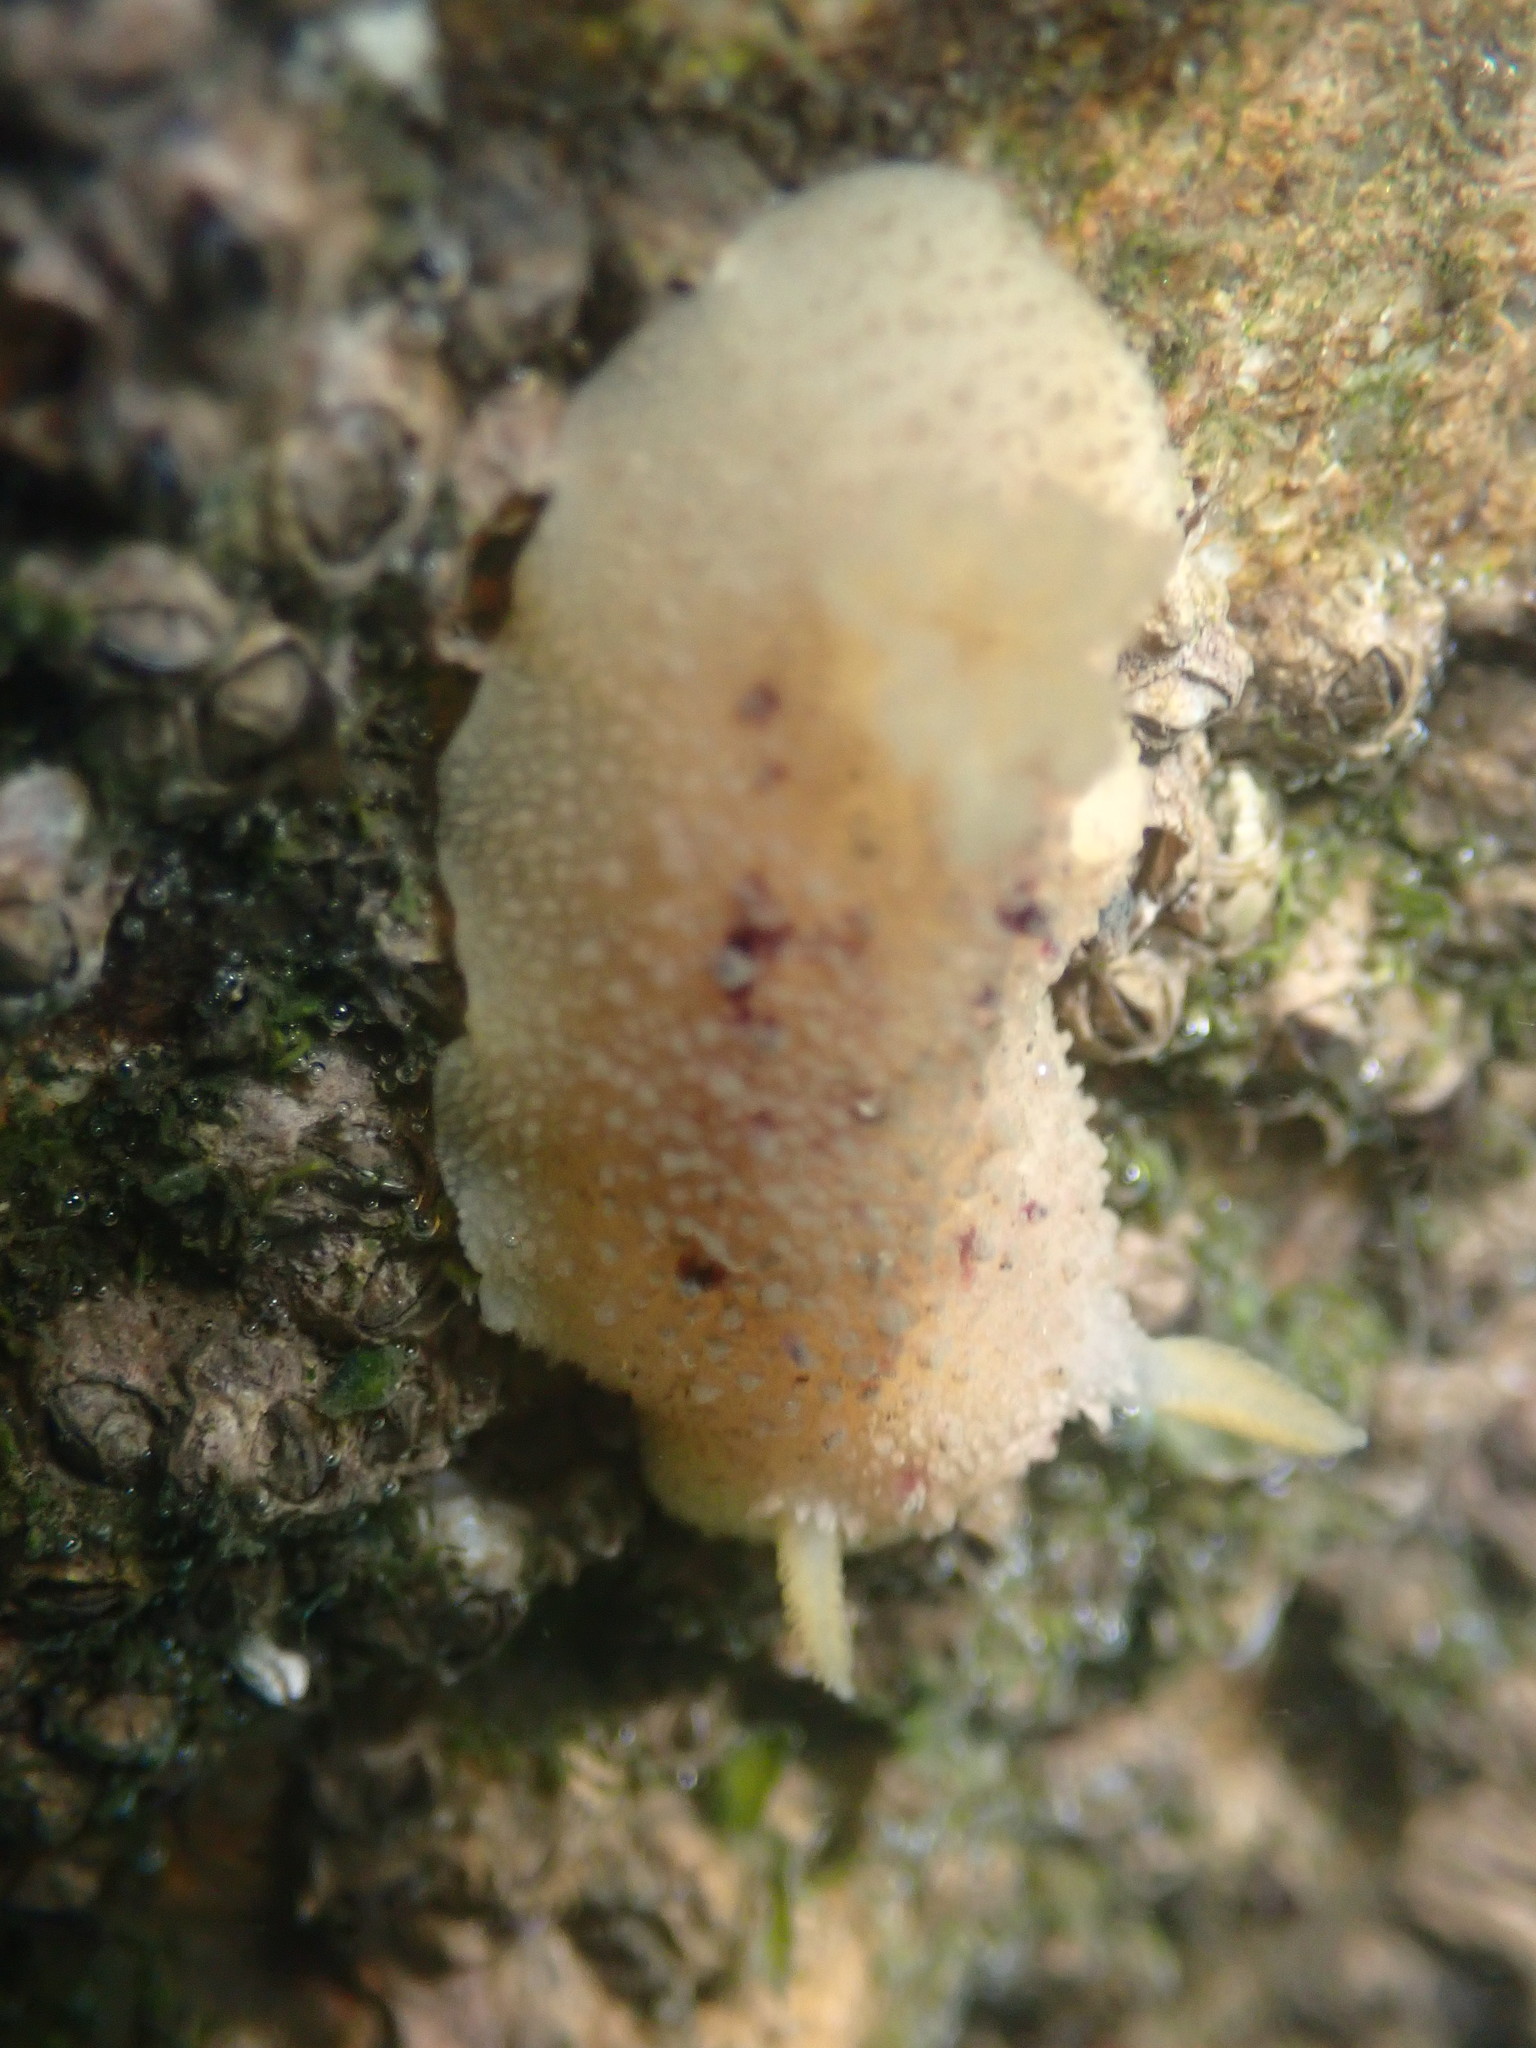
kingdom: Animalia
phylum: Mollusca
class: Gastropoda
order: Nudibranchia
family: Dorididae
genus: Doris
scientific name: Doris montereyensis
